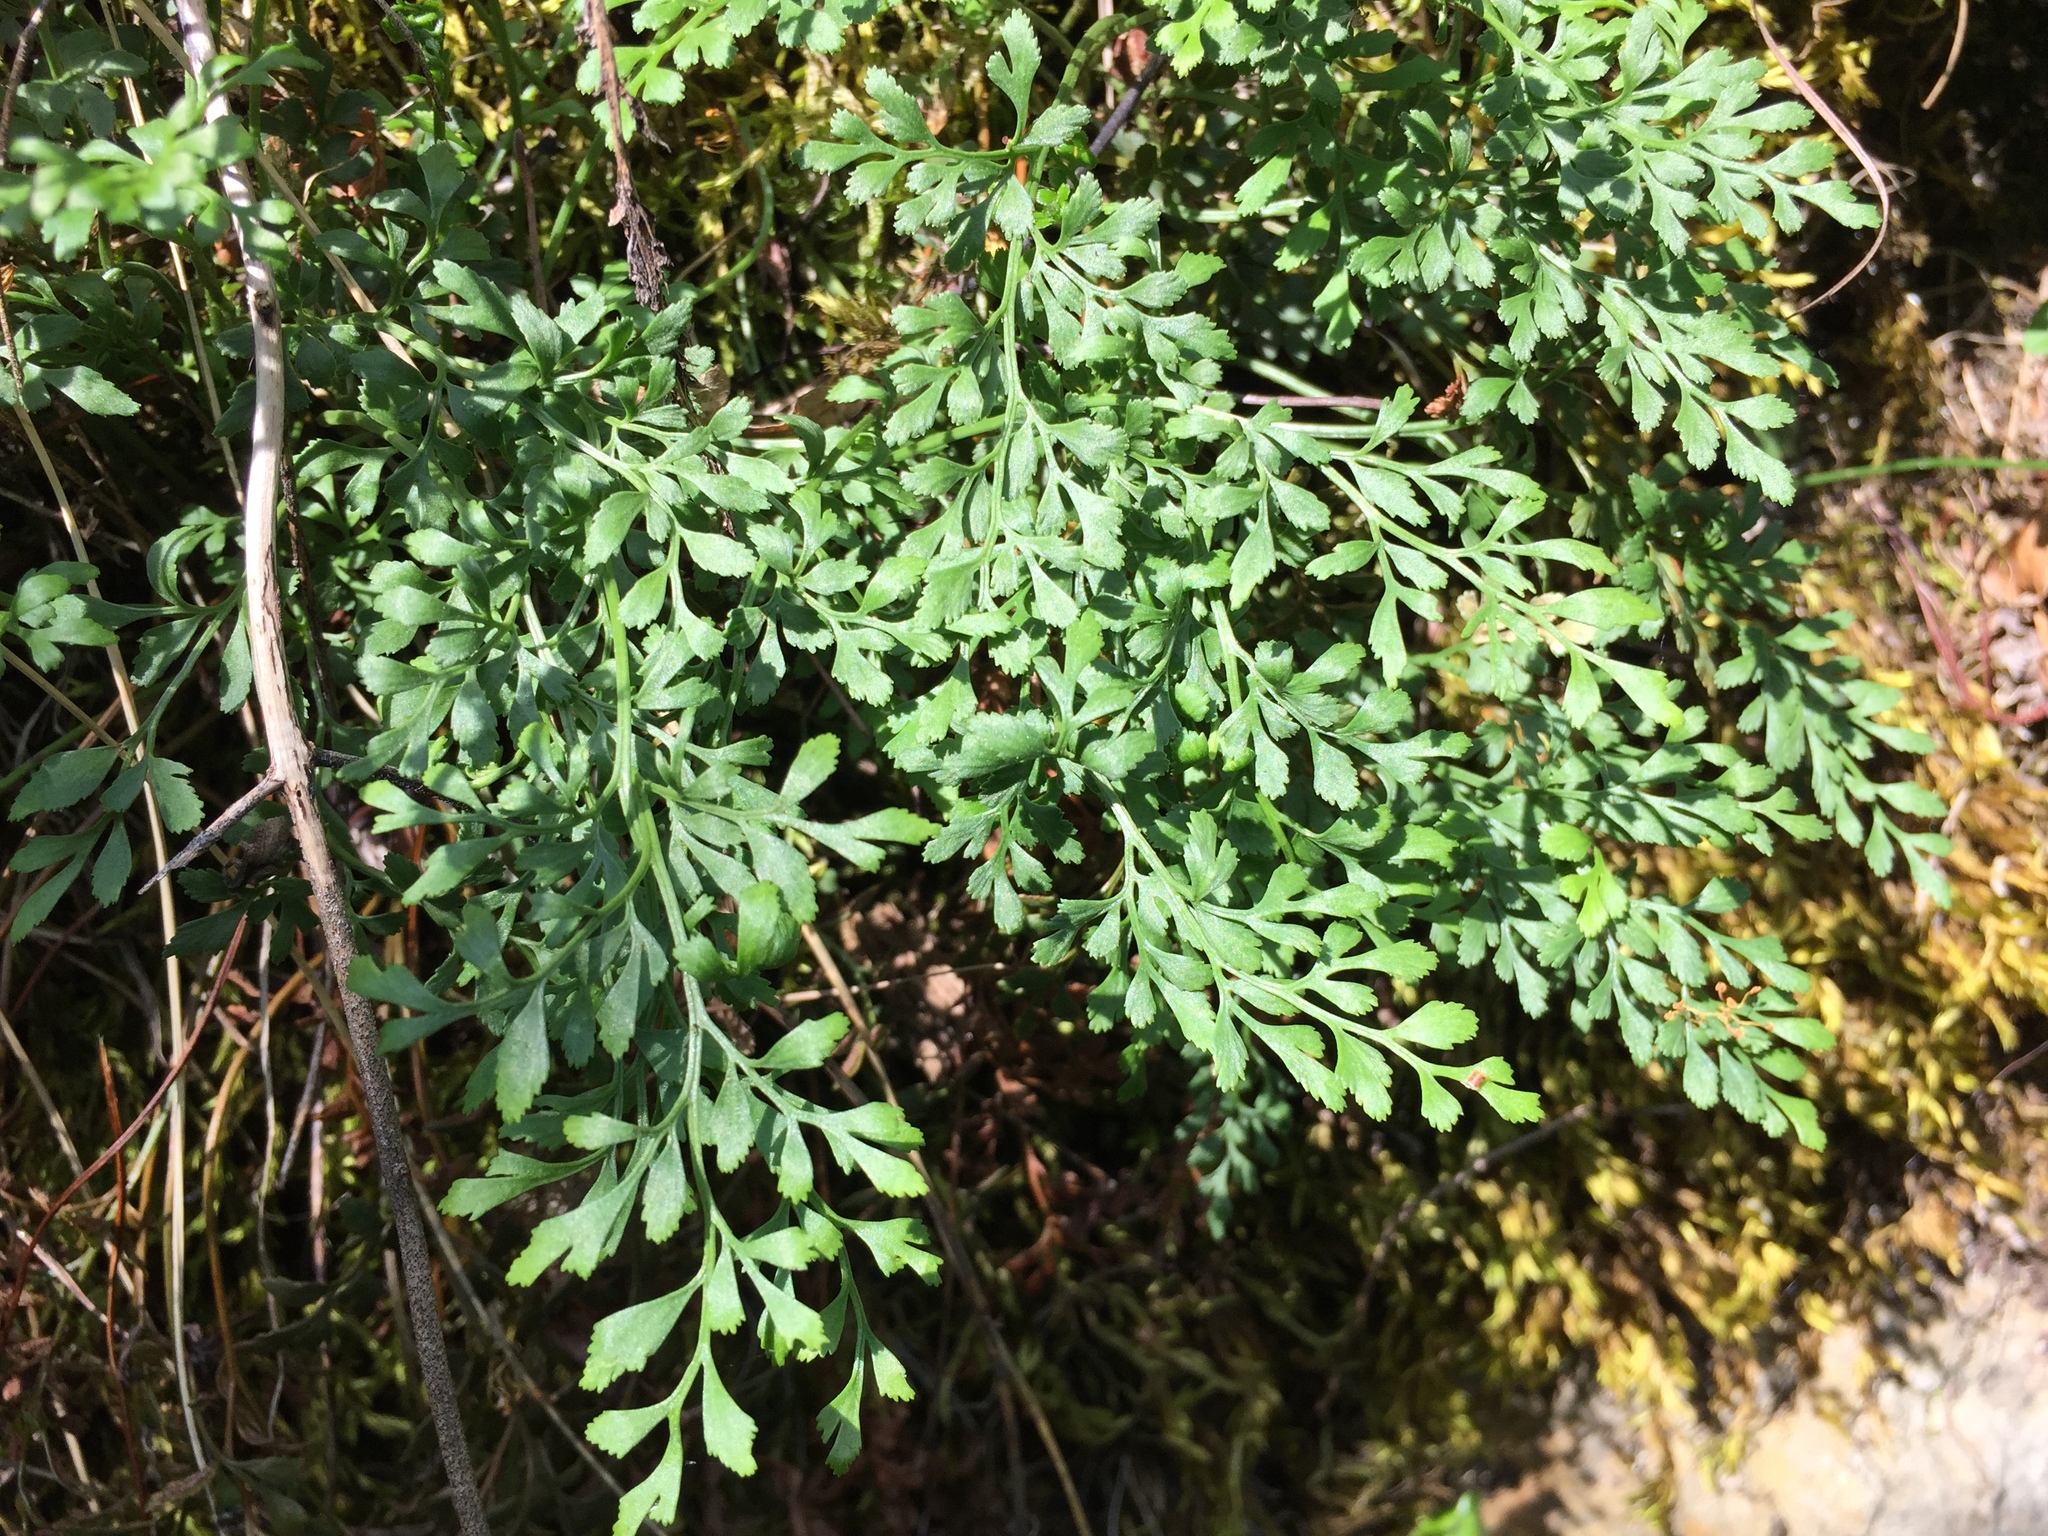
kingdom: Plantae
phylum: Tracheophyta
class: Polypodiopsida
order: Polypodiales
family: Aspleniaceae
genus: Asplenium
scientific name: Asplenium ruta-muraria
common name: Wall-rue
